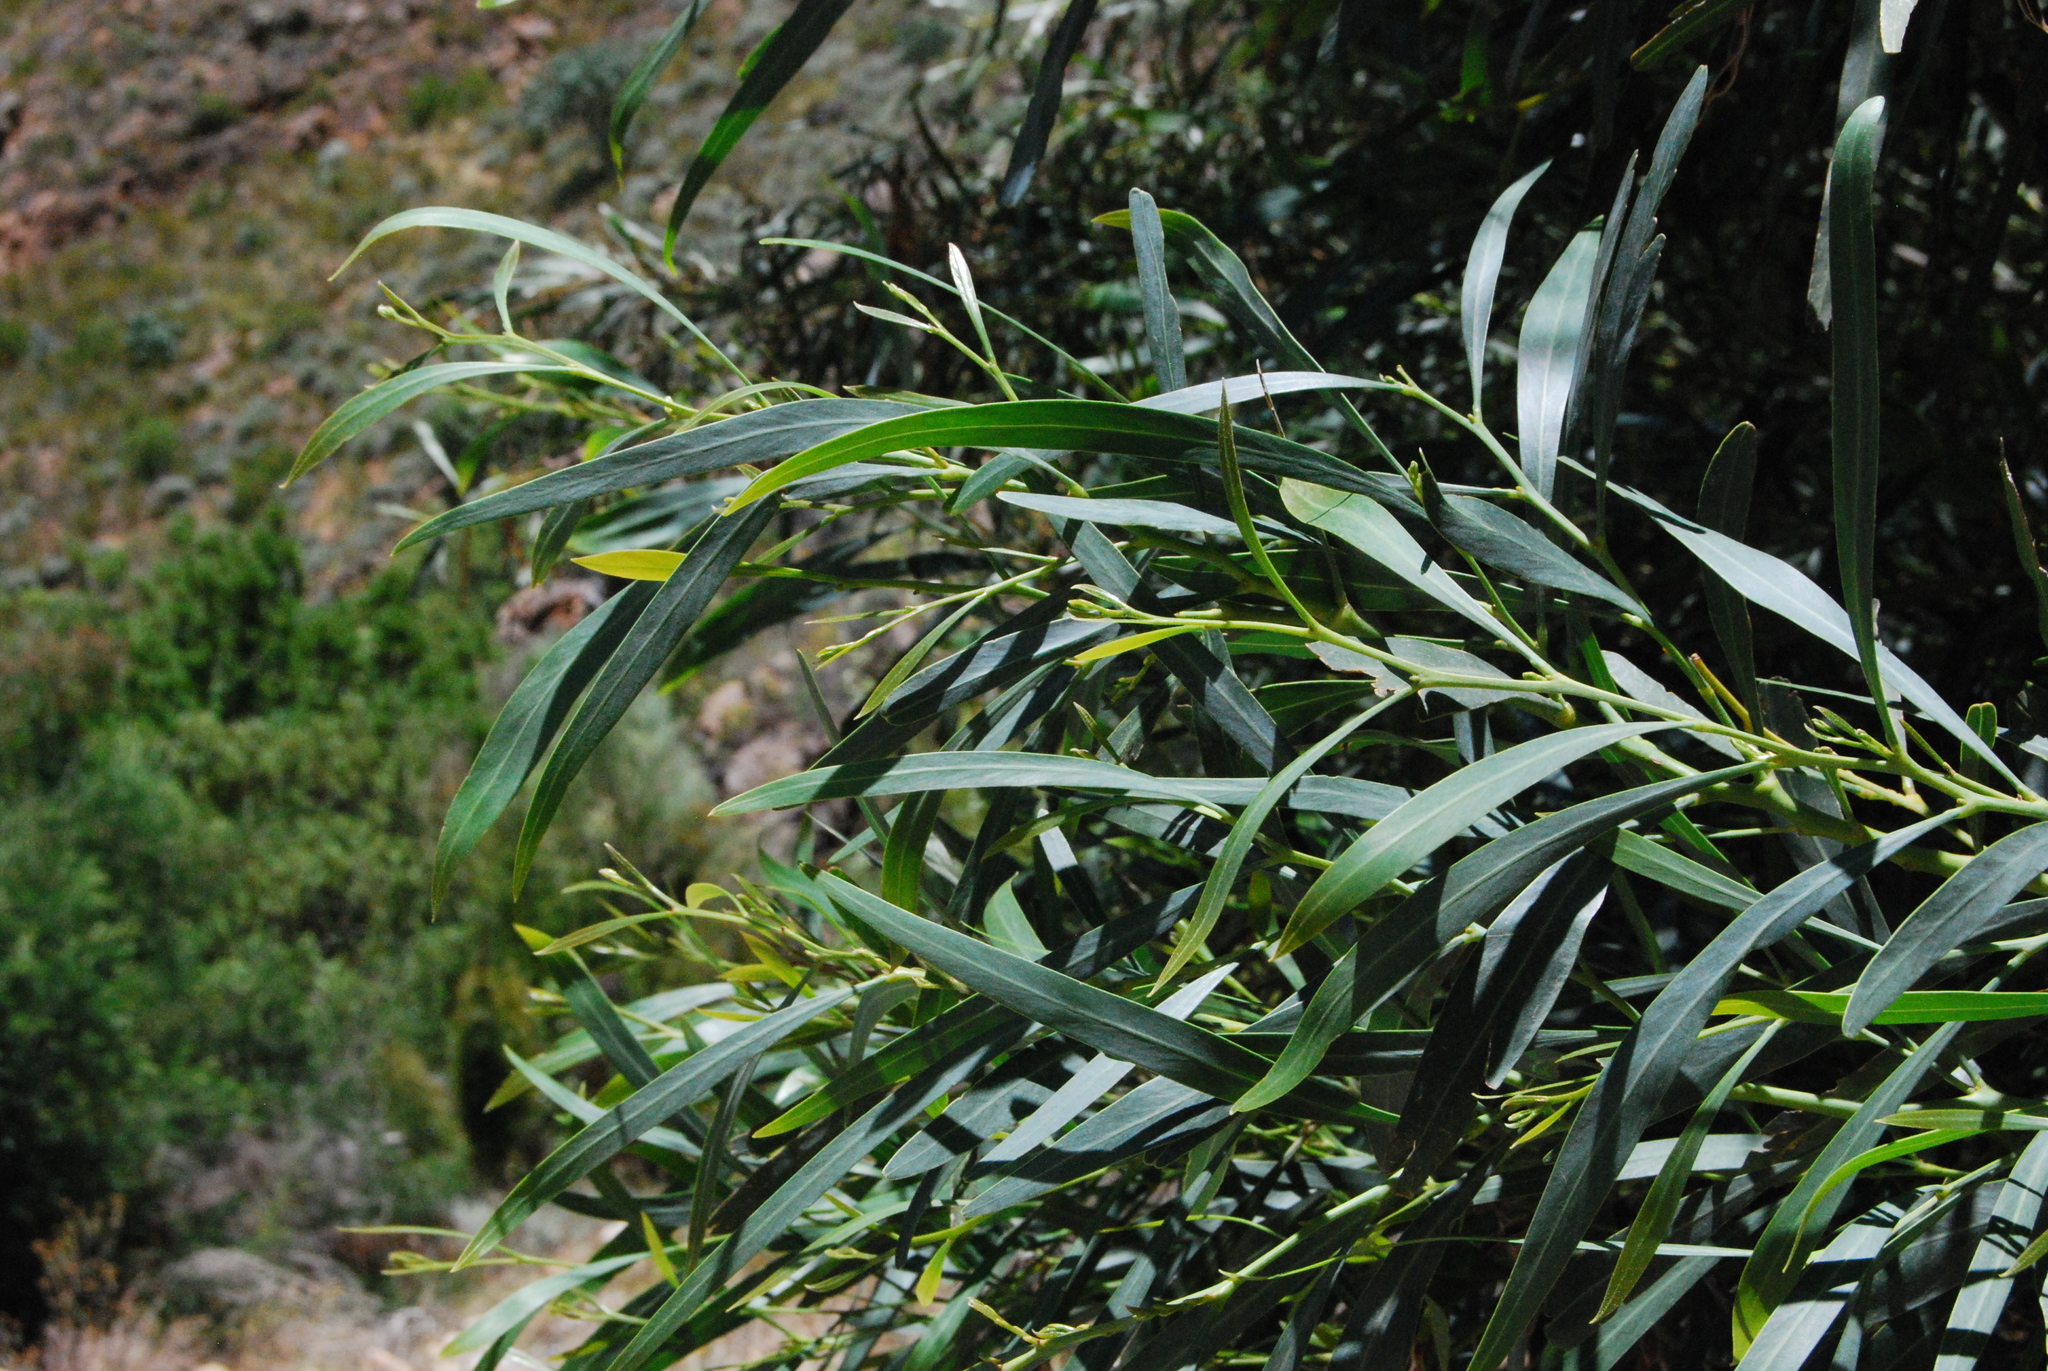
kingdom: Plantae
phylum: Tracheophyta
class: Magnoliopsida
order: Fabales
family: Fabaceae
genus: Acacia
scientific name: Acacia saligna
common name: Orange wattle
